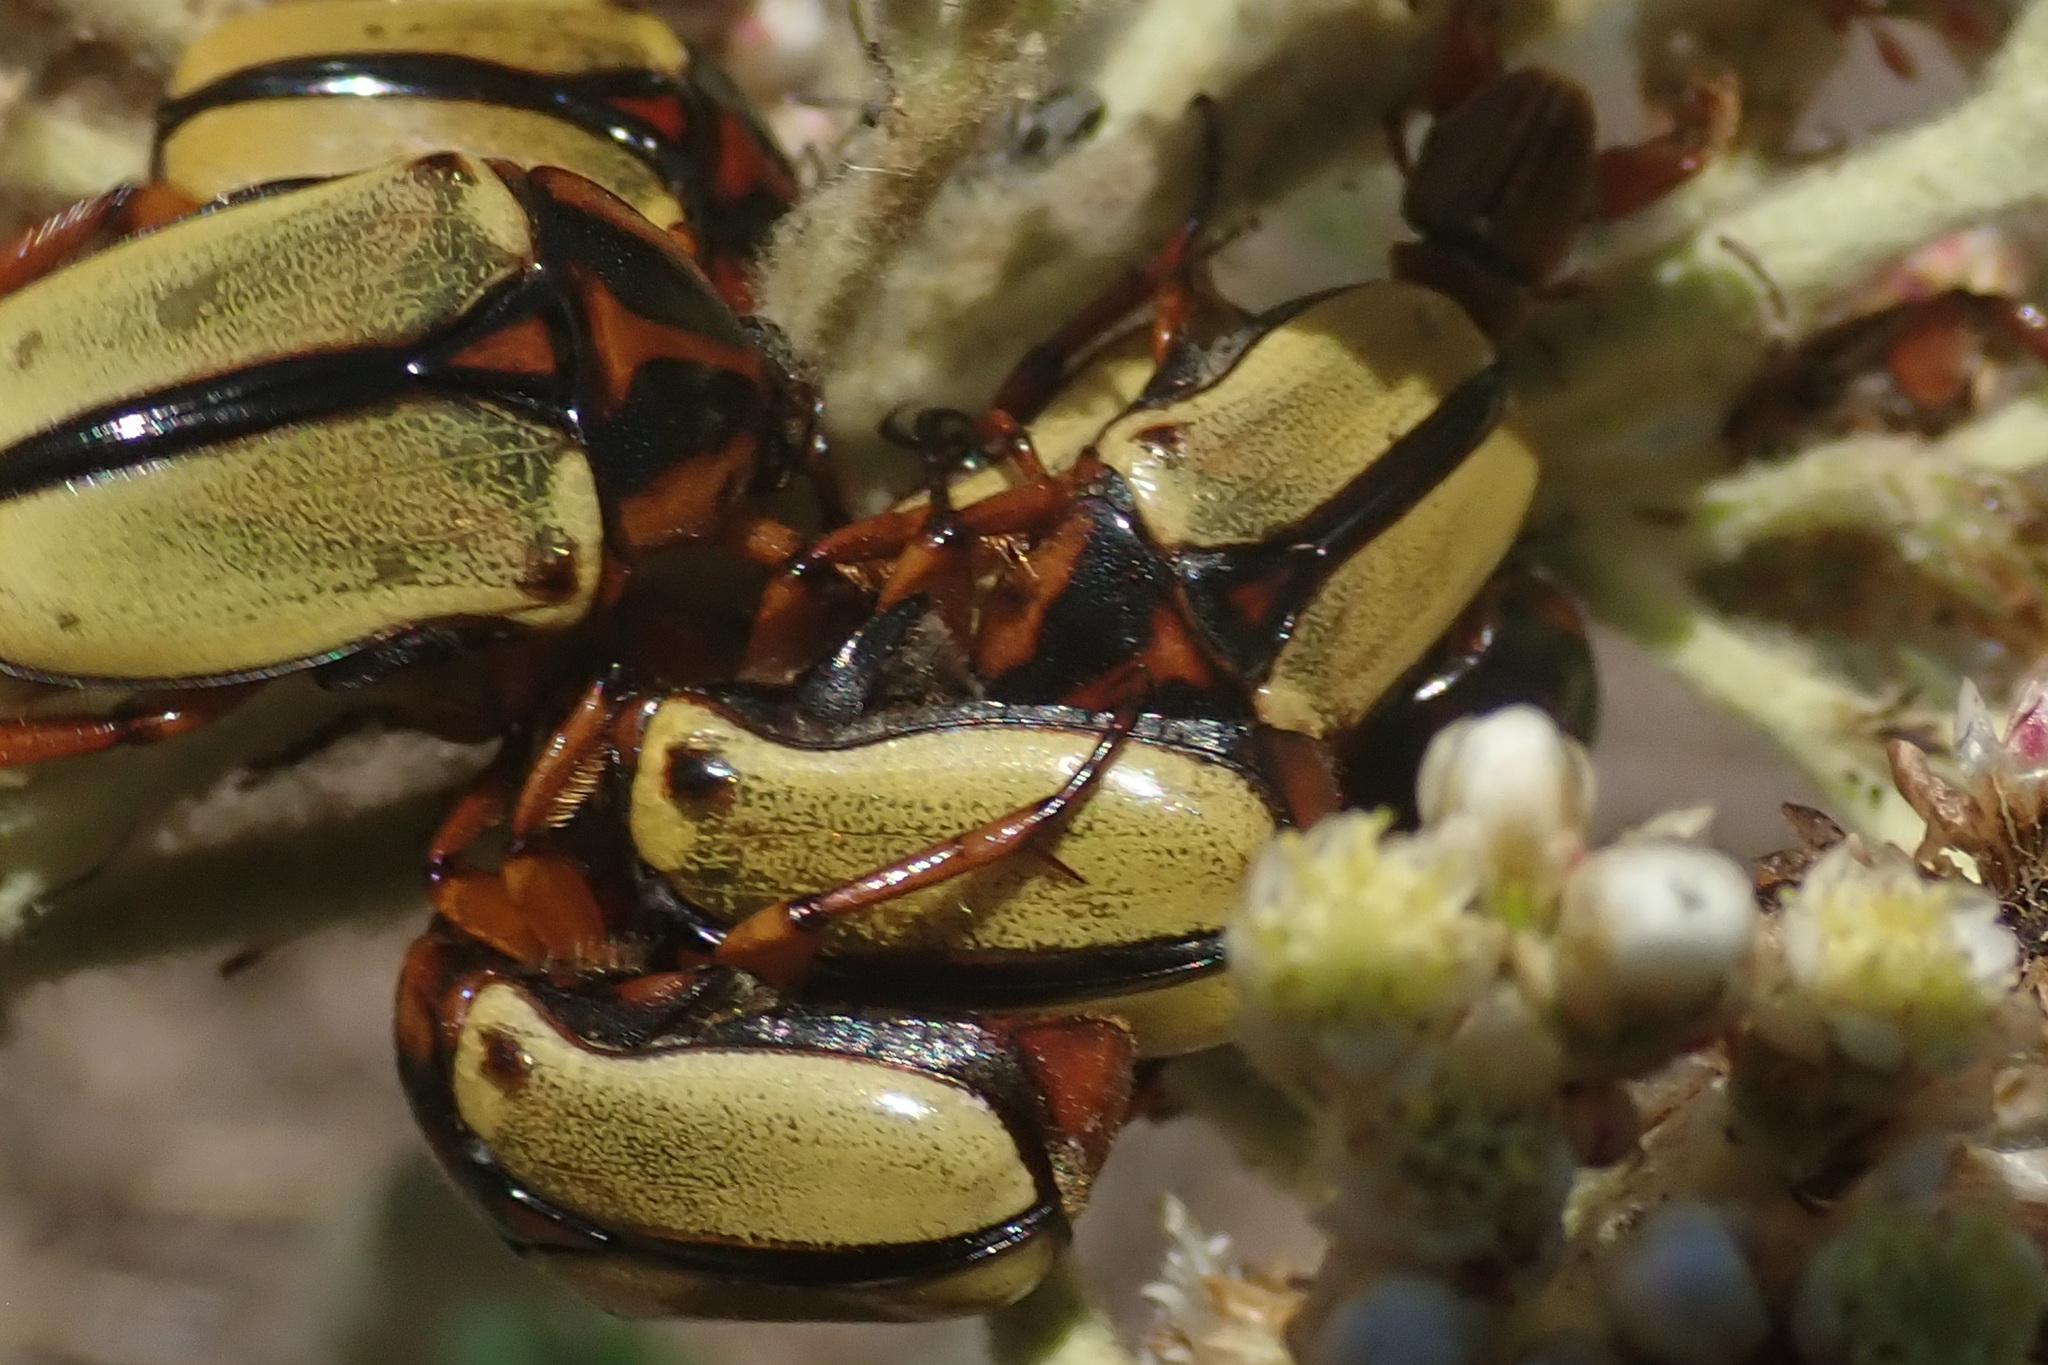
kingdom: Animalia
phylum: Arthropoda
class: Insecta
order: Coleoptera
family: Scarabaeidae
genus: Anisorrhina
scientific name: Anisorrhina umbonata
